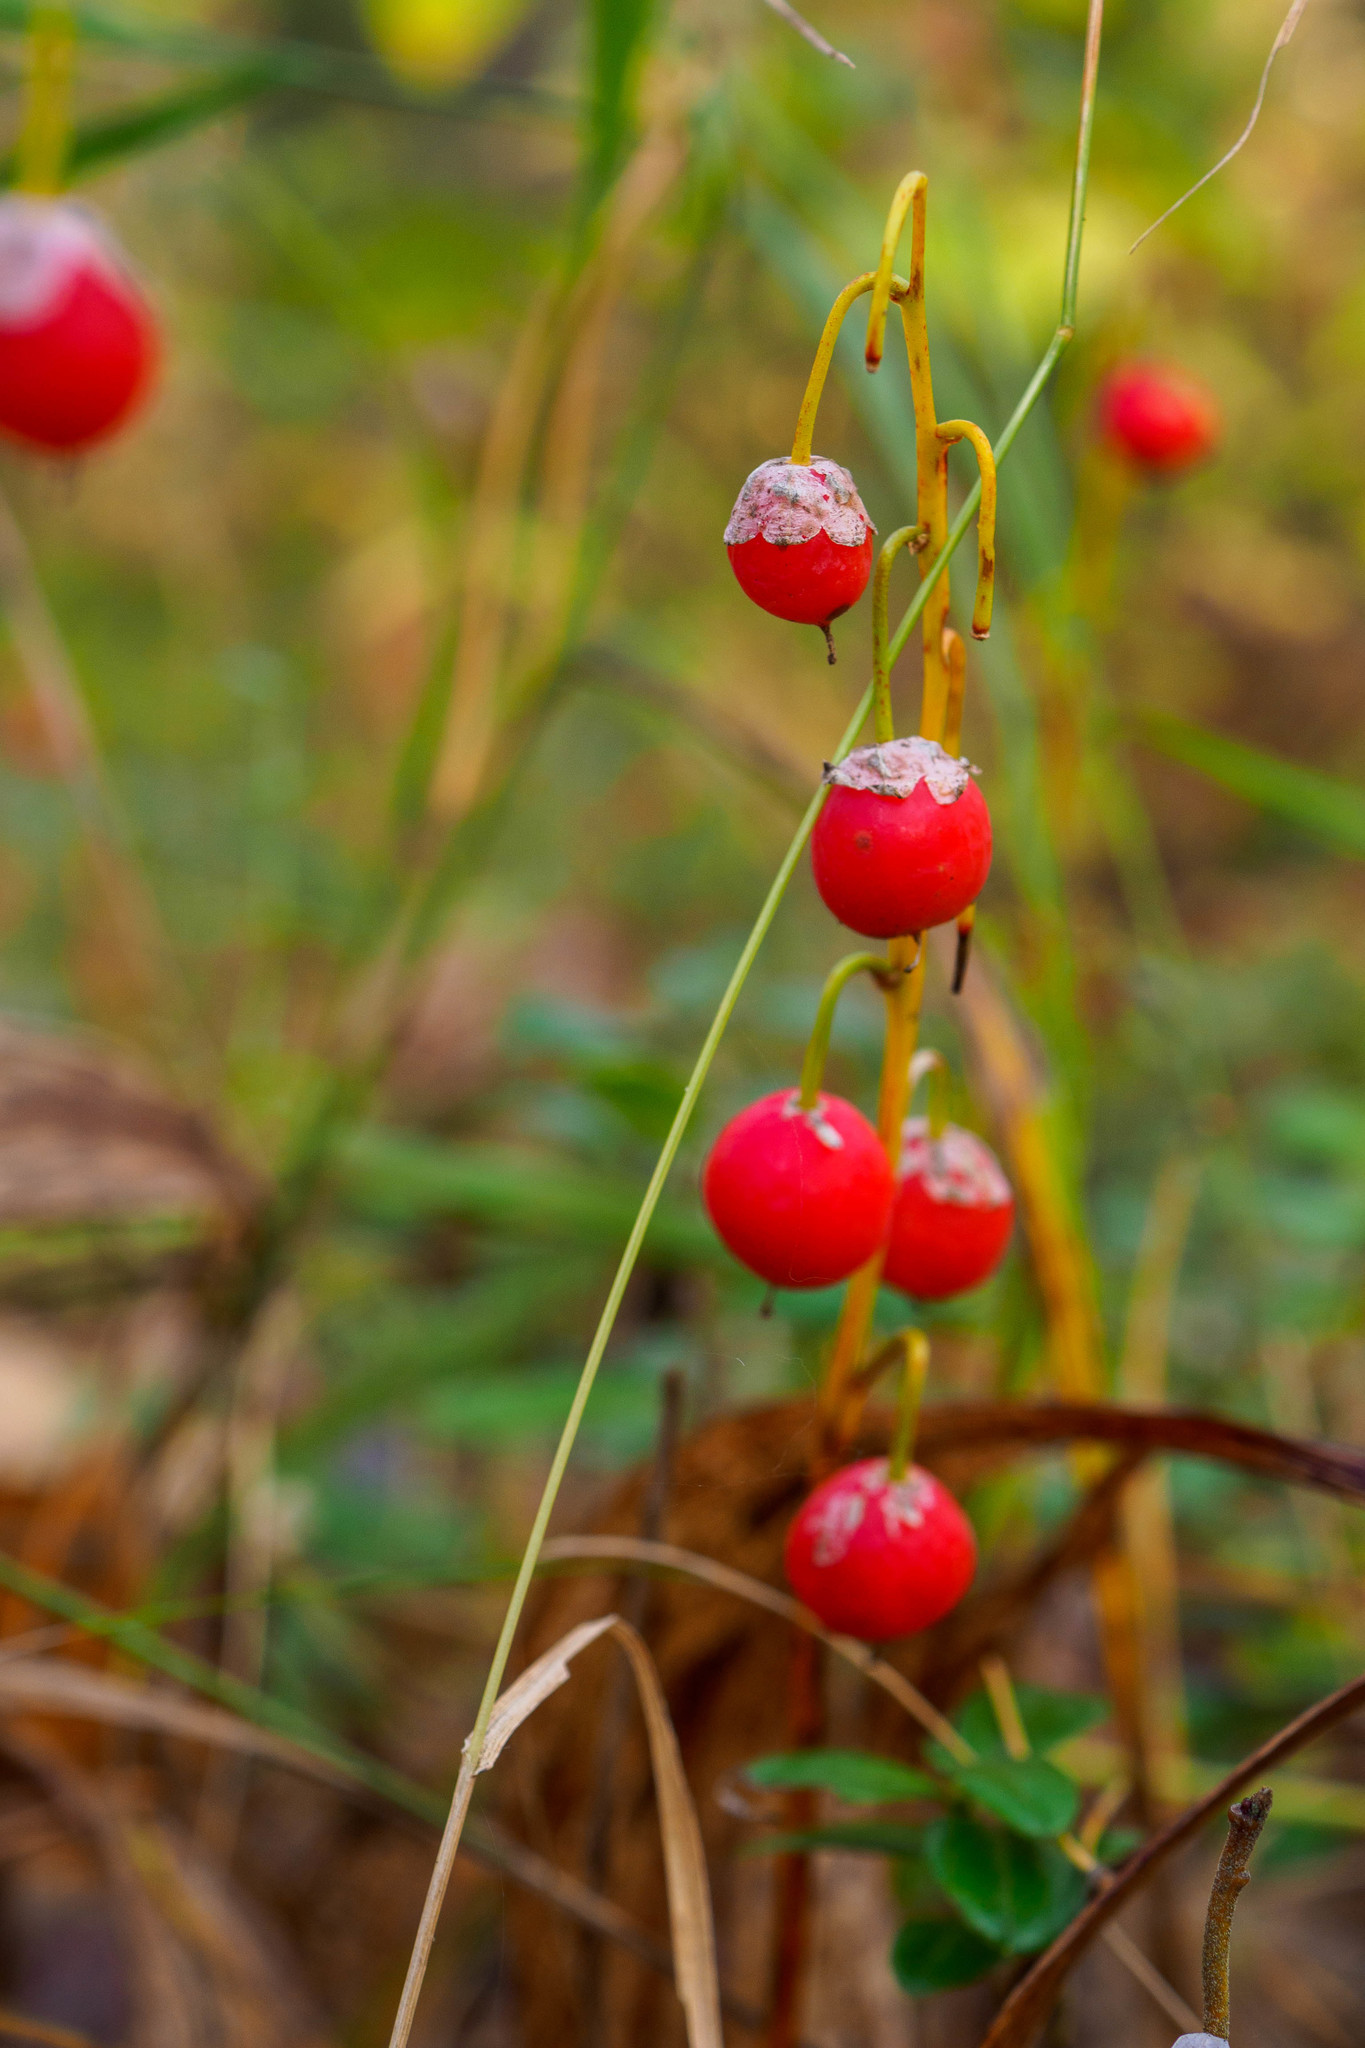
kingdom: Plantae
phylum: Tracheophyta
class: Liliopsida
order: Asparagales
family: Asparagaceae
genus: Convallaria
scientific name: Convallaria majalis
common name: Lily-of-the-valley
